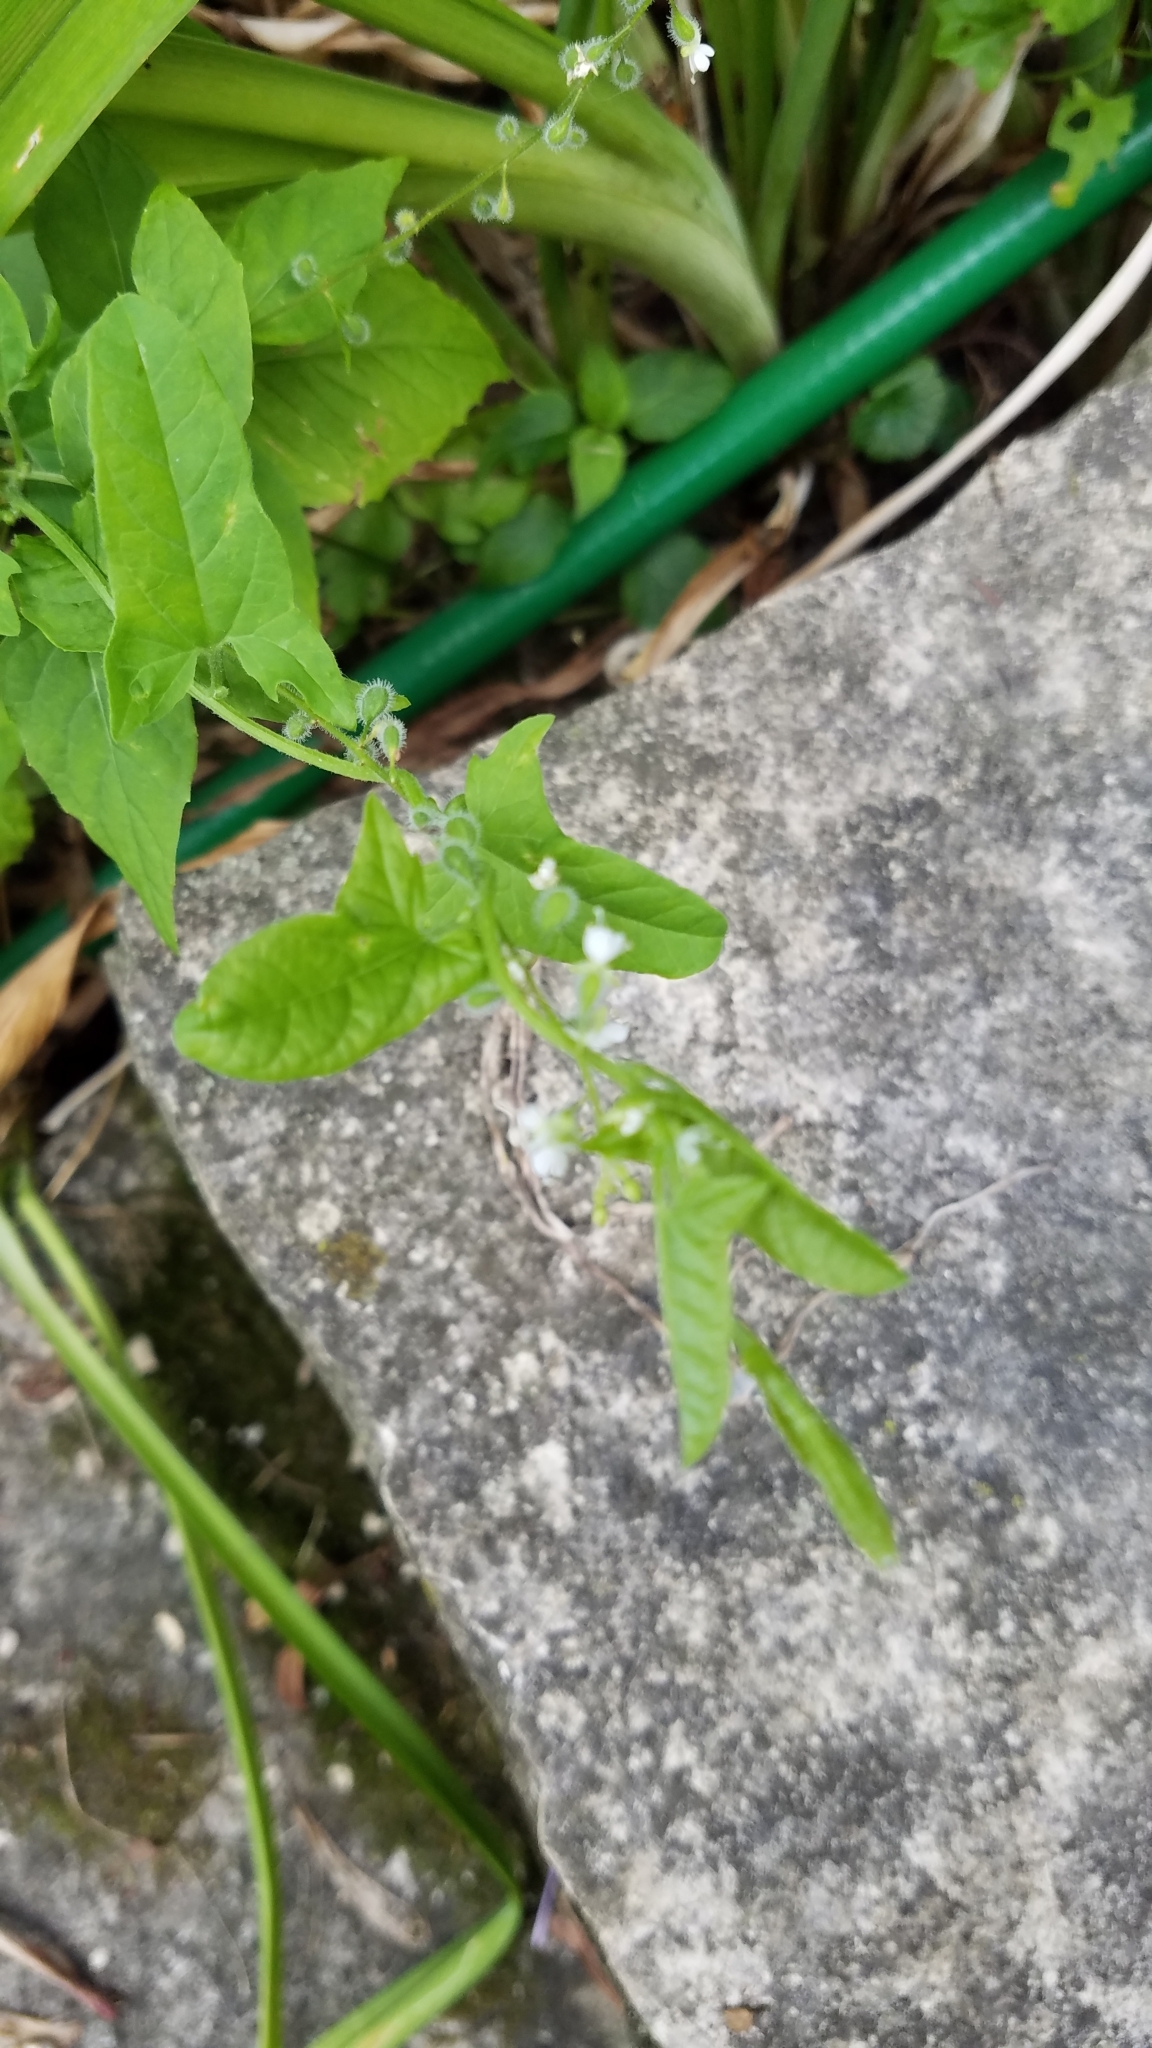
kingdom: Plantae
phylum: Tracheophyta
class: Magnoliopsida
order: Myrtales
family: Onagraceae
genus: Circaea
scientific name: Circaea canadensis
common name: Broad-leaved enchanter's nightshade
